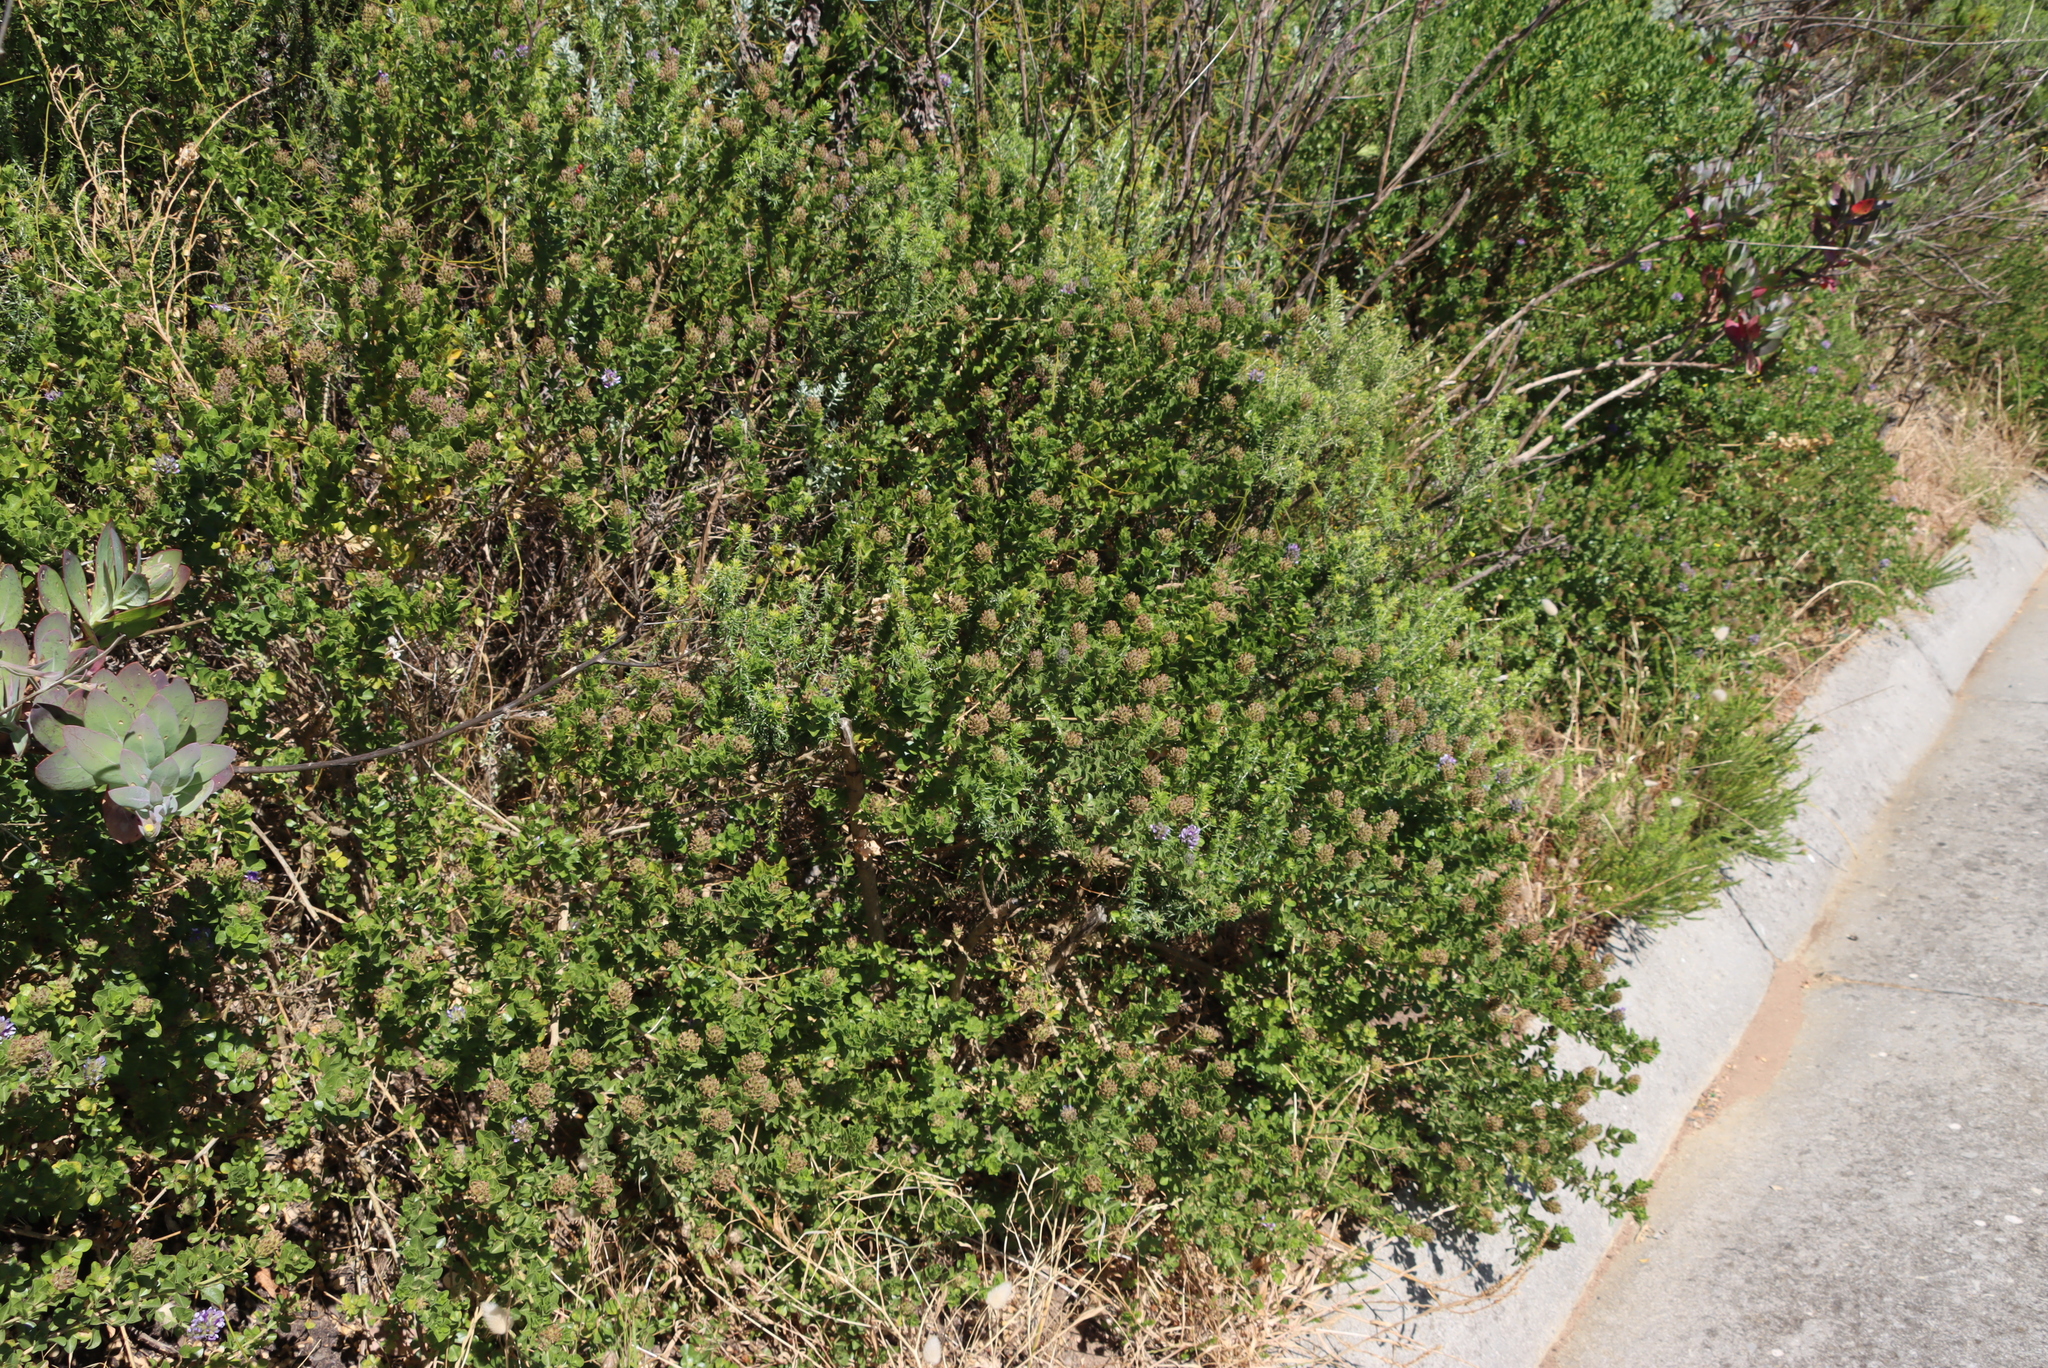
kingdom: Plantae
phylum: Tracheophyta
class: Magnoliopsida
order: Fabales
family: Fabaceae
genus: Psoralea
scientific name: Psoralea bracteolata
